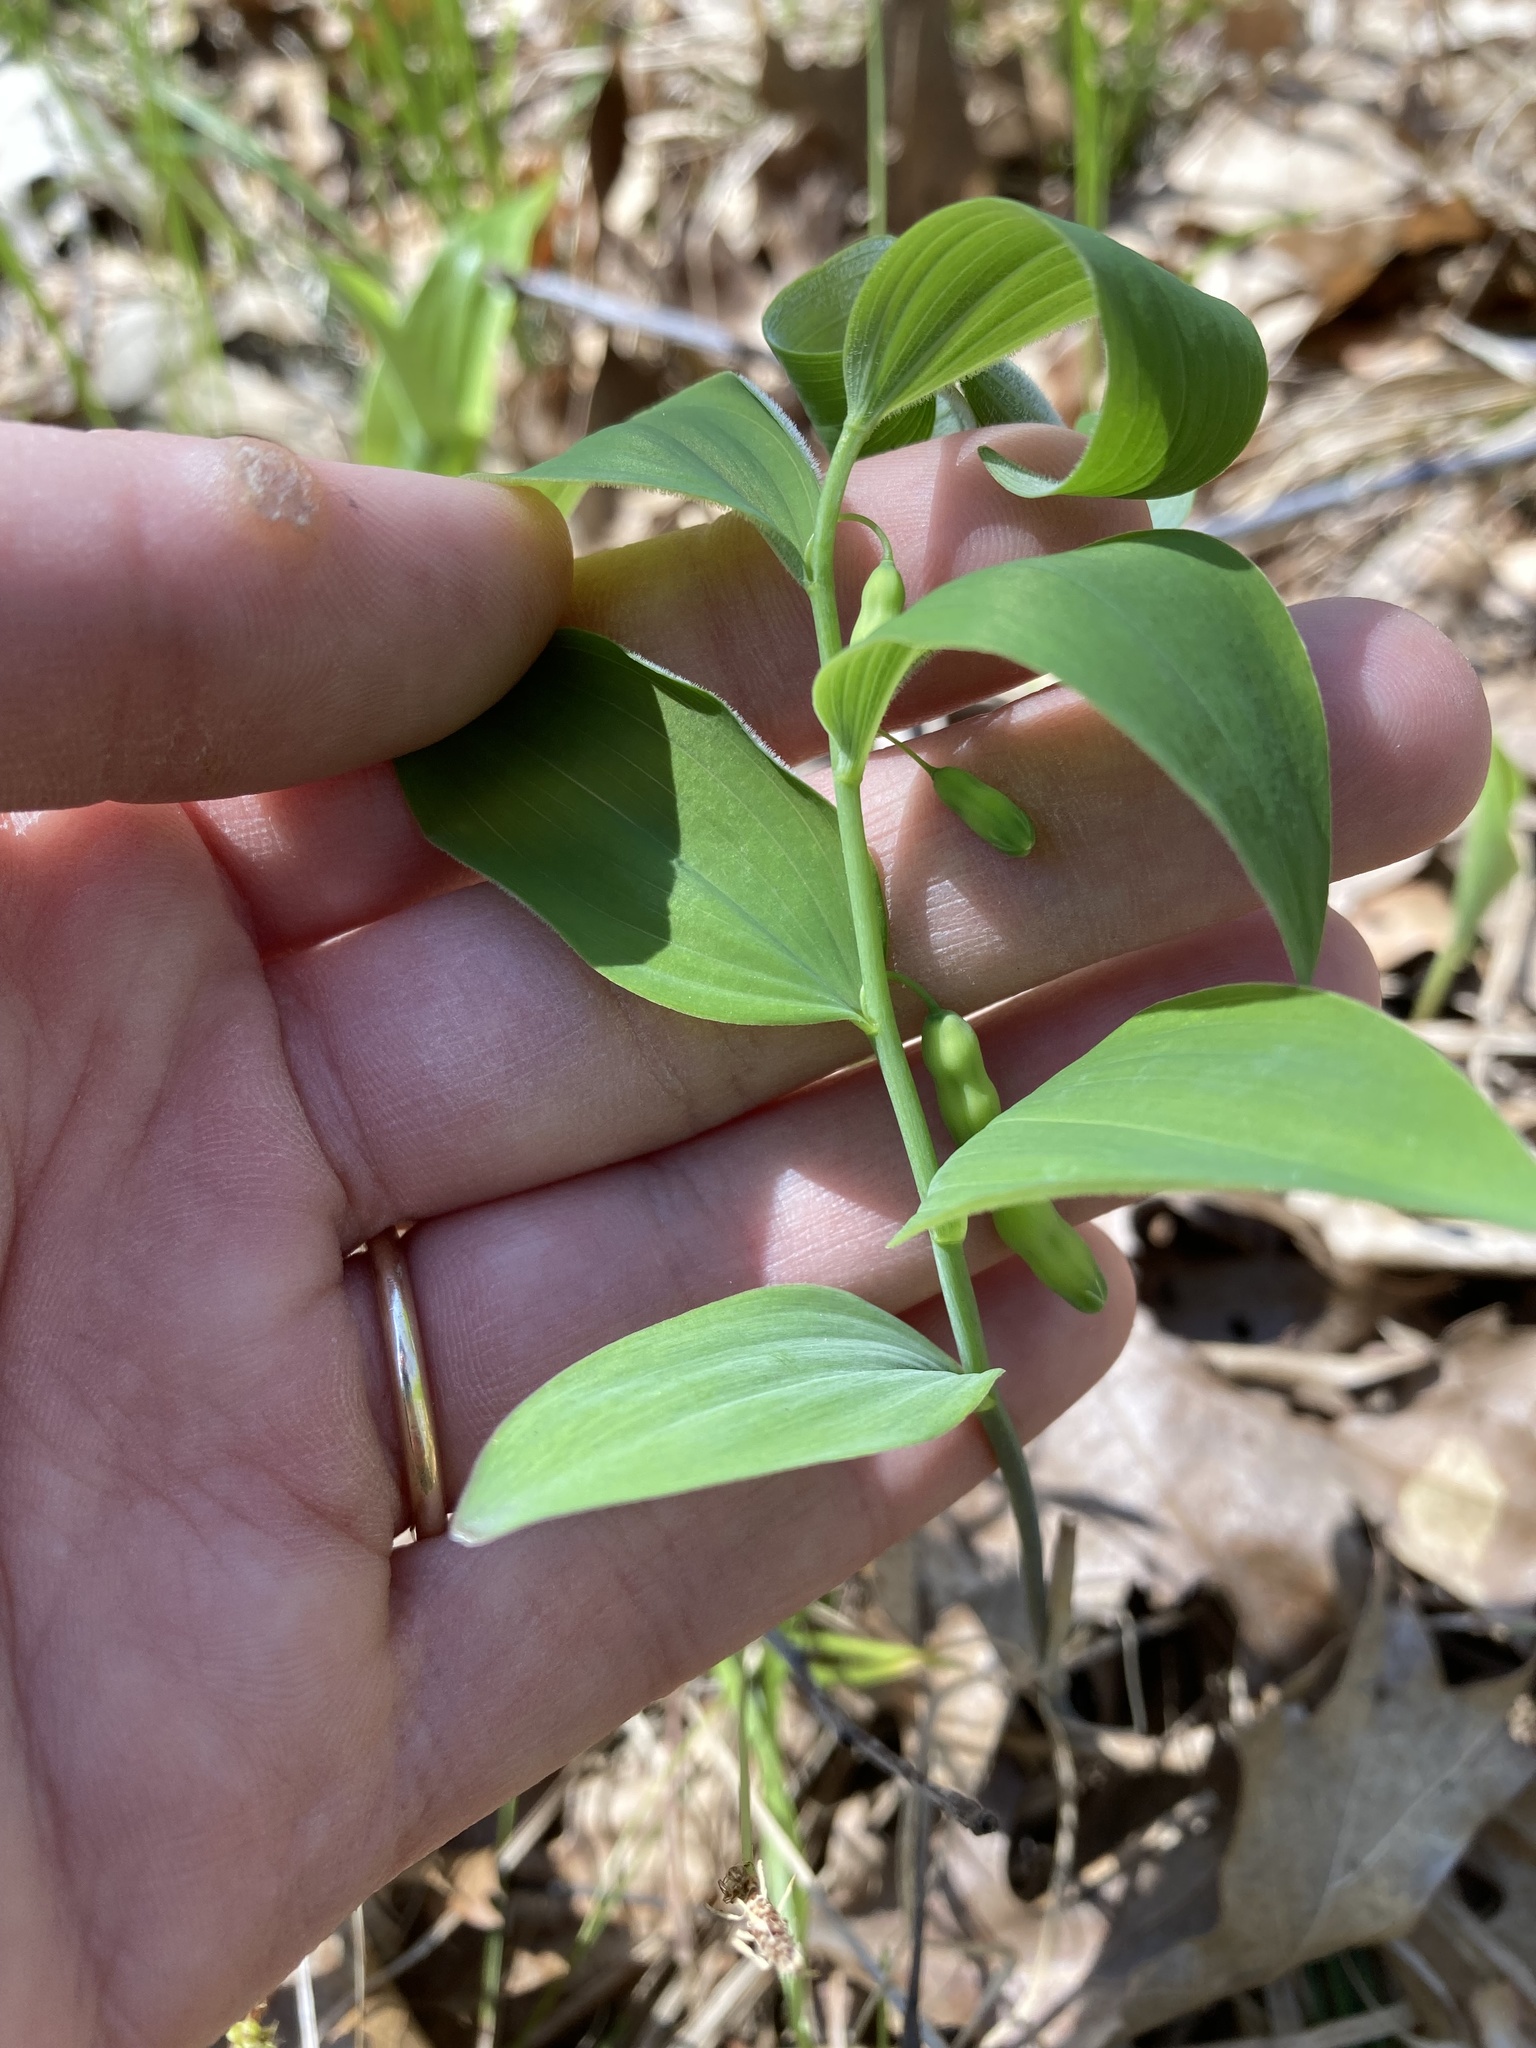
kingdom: Plantae
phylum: Tracheophyta
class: Liliopsida
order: Asparagales
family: Asparagaceae
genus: Polygonatum
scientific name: Polygonatum pubescens
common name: Downy solomon's seal
